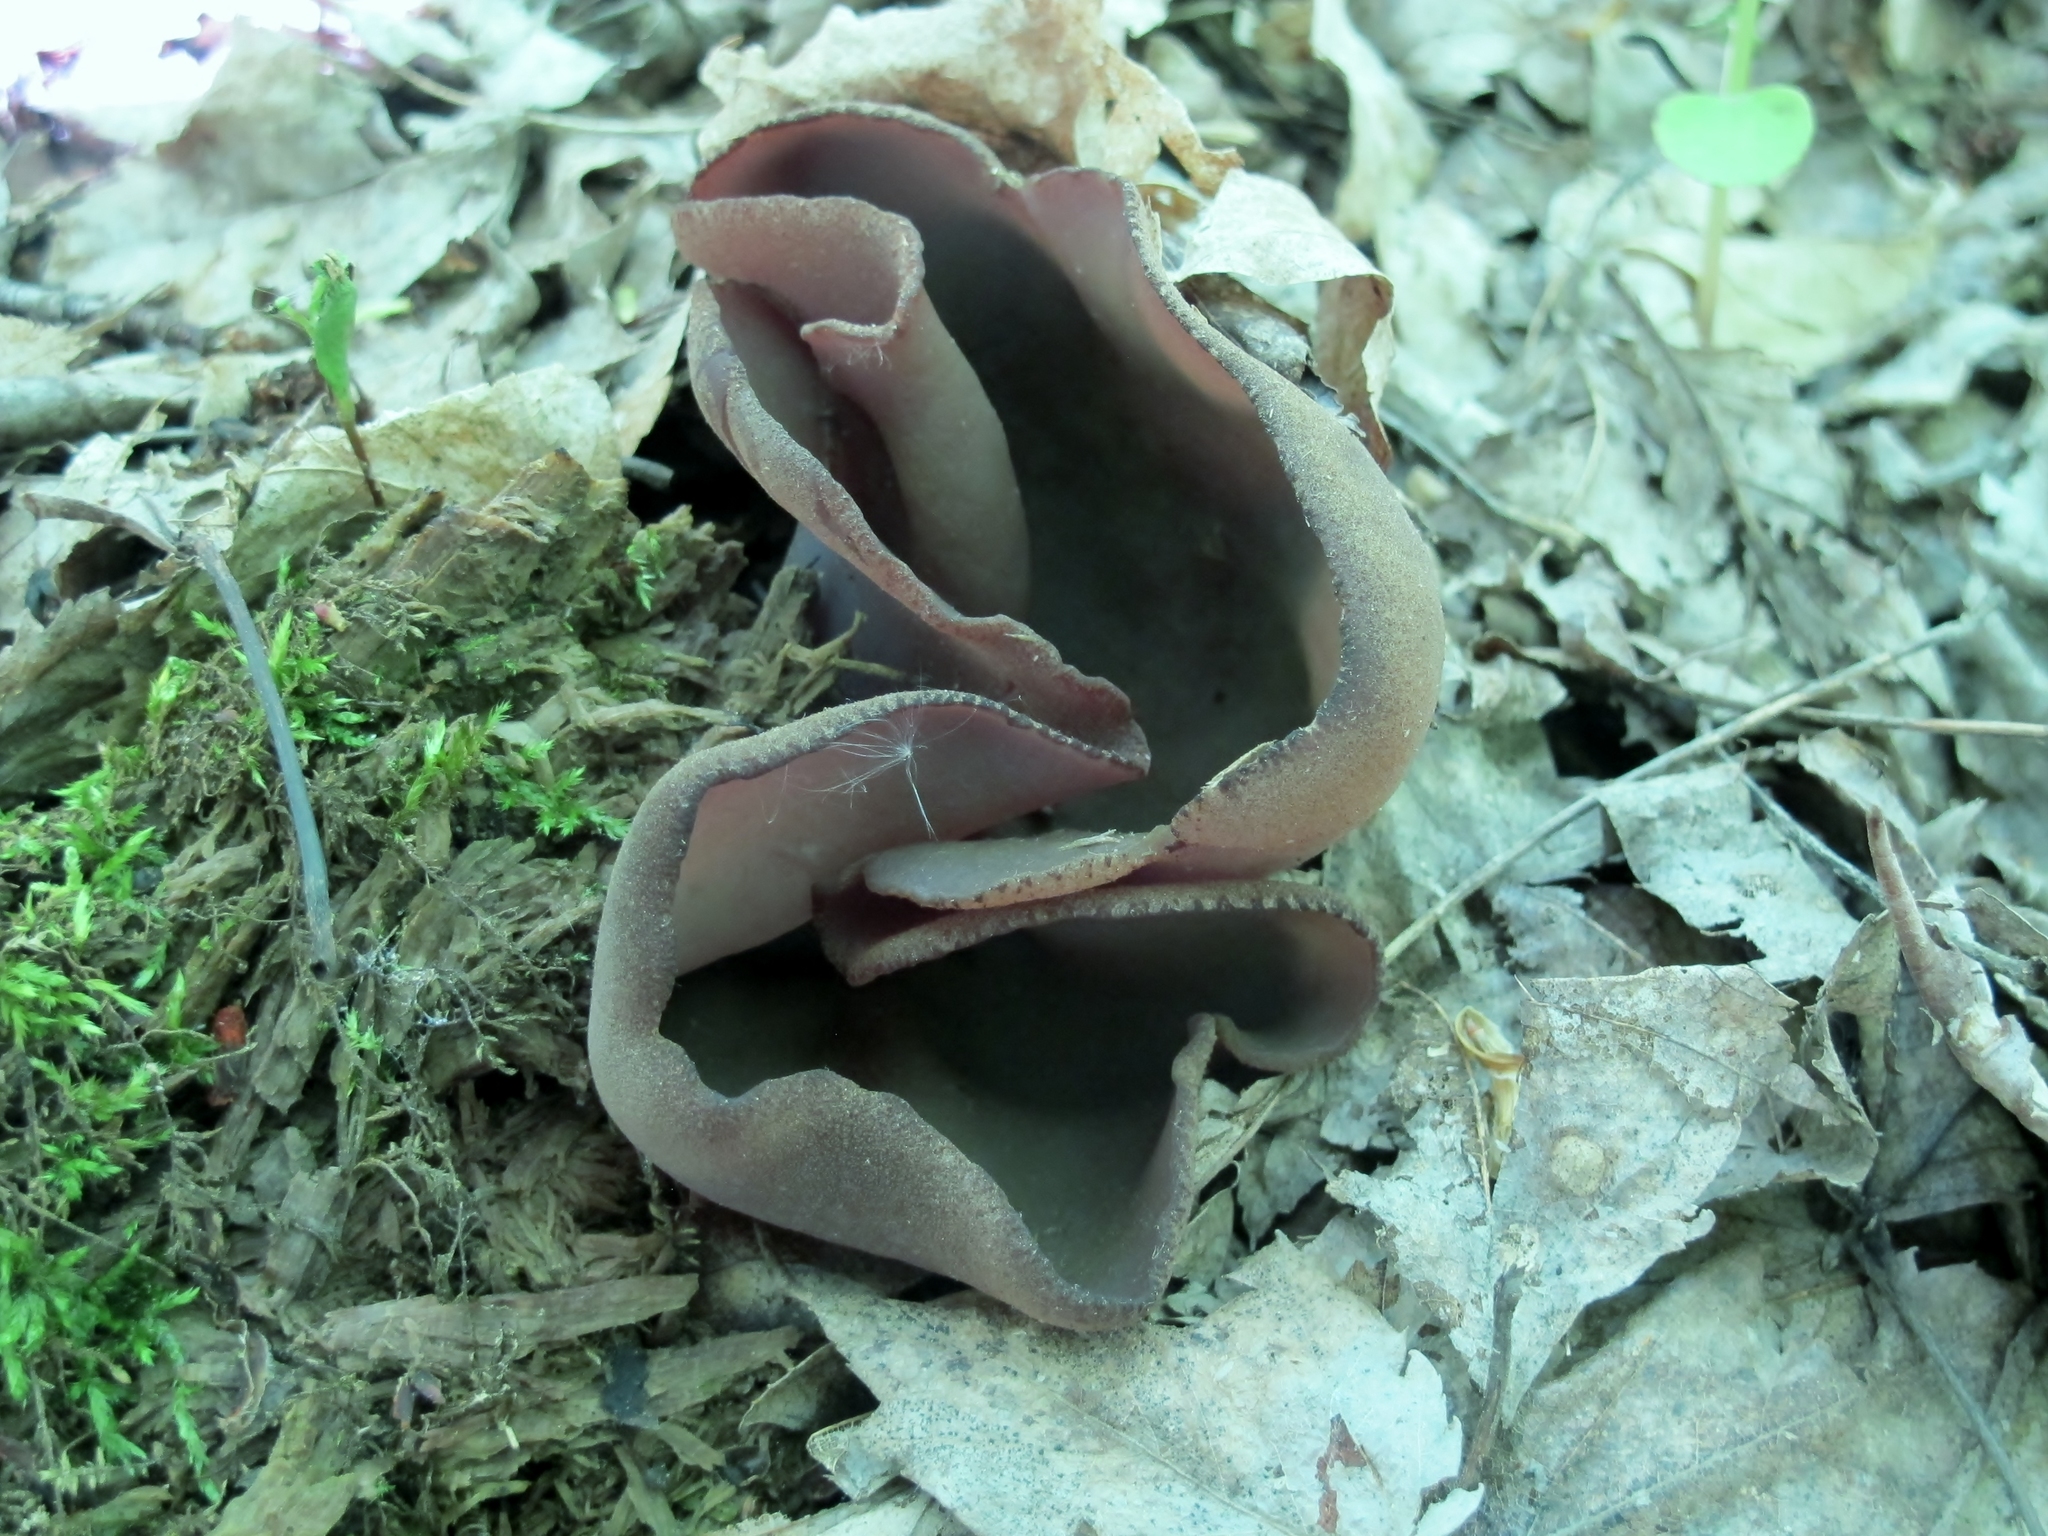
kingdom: Fungi
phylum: Ascomycota
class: Pezizomycetes
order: Pezizales
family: Pezizaceae
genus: Phylloscypha
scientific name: Phylloscypha phyllogena
